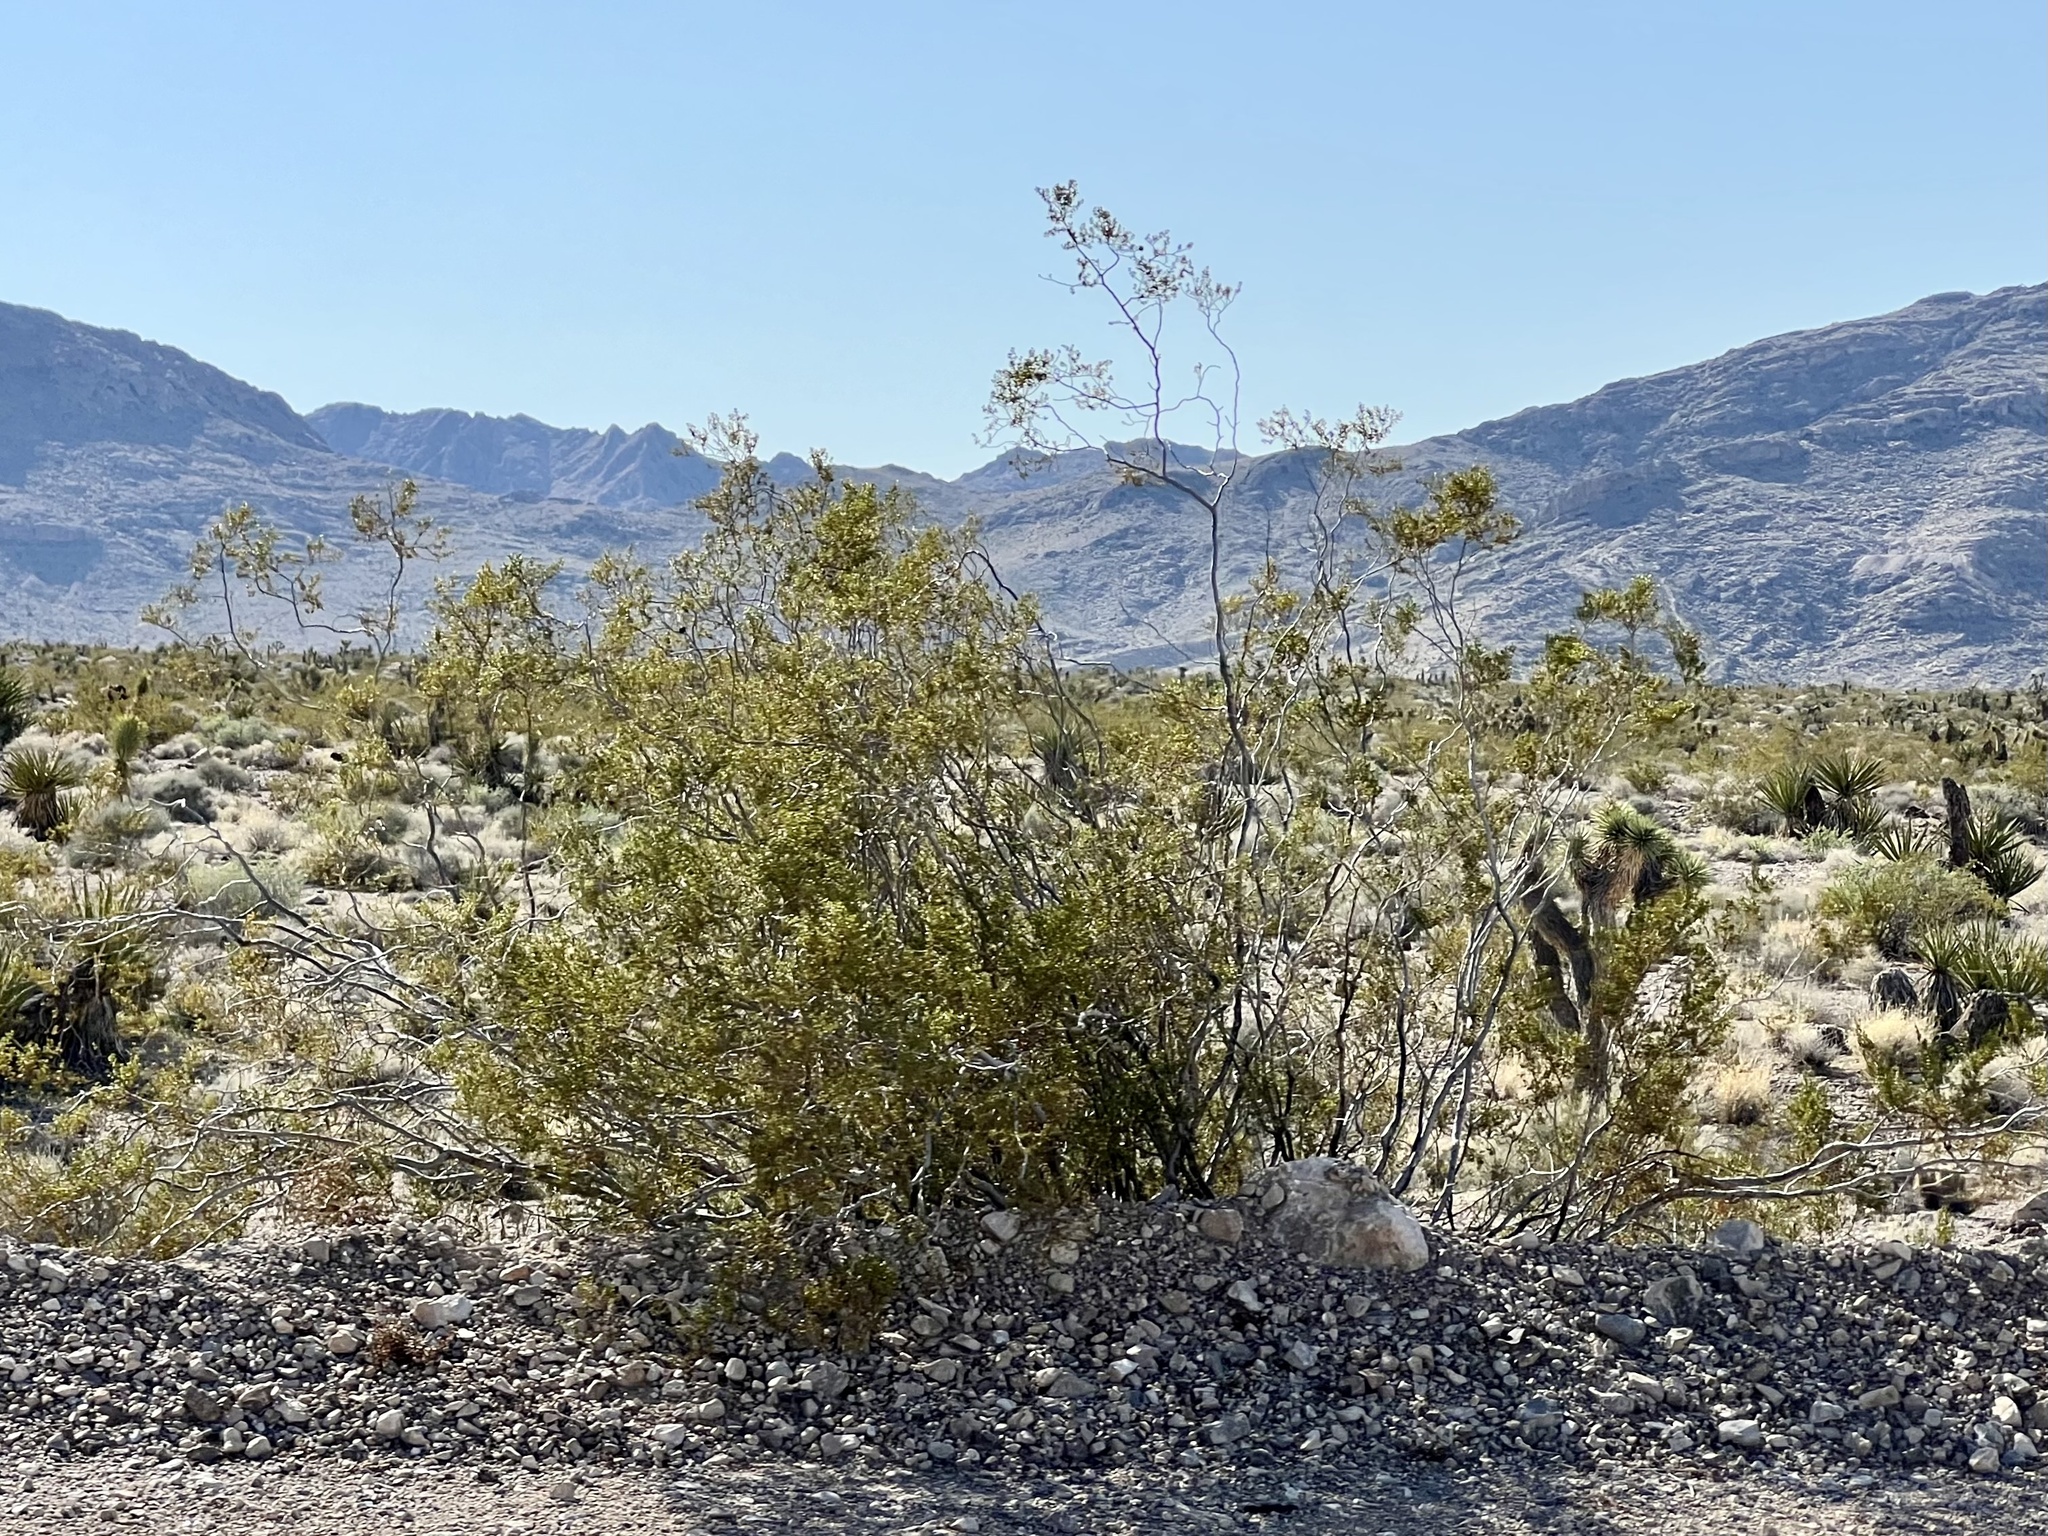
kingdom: Plantae
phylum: Tracheophyta
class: Magnoliopsida
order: Zygophyllales
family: Zygophyllaceae
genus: Larrea
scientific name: Larrea tridentata
